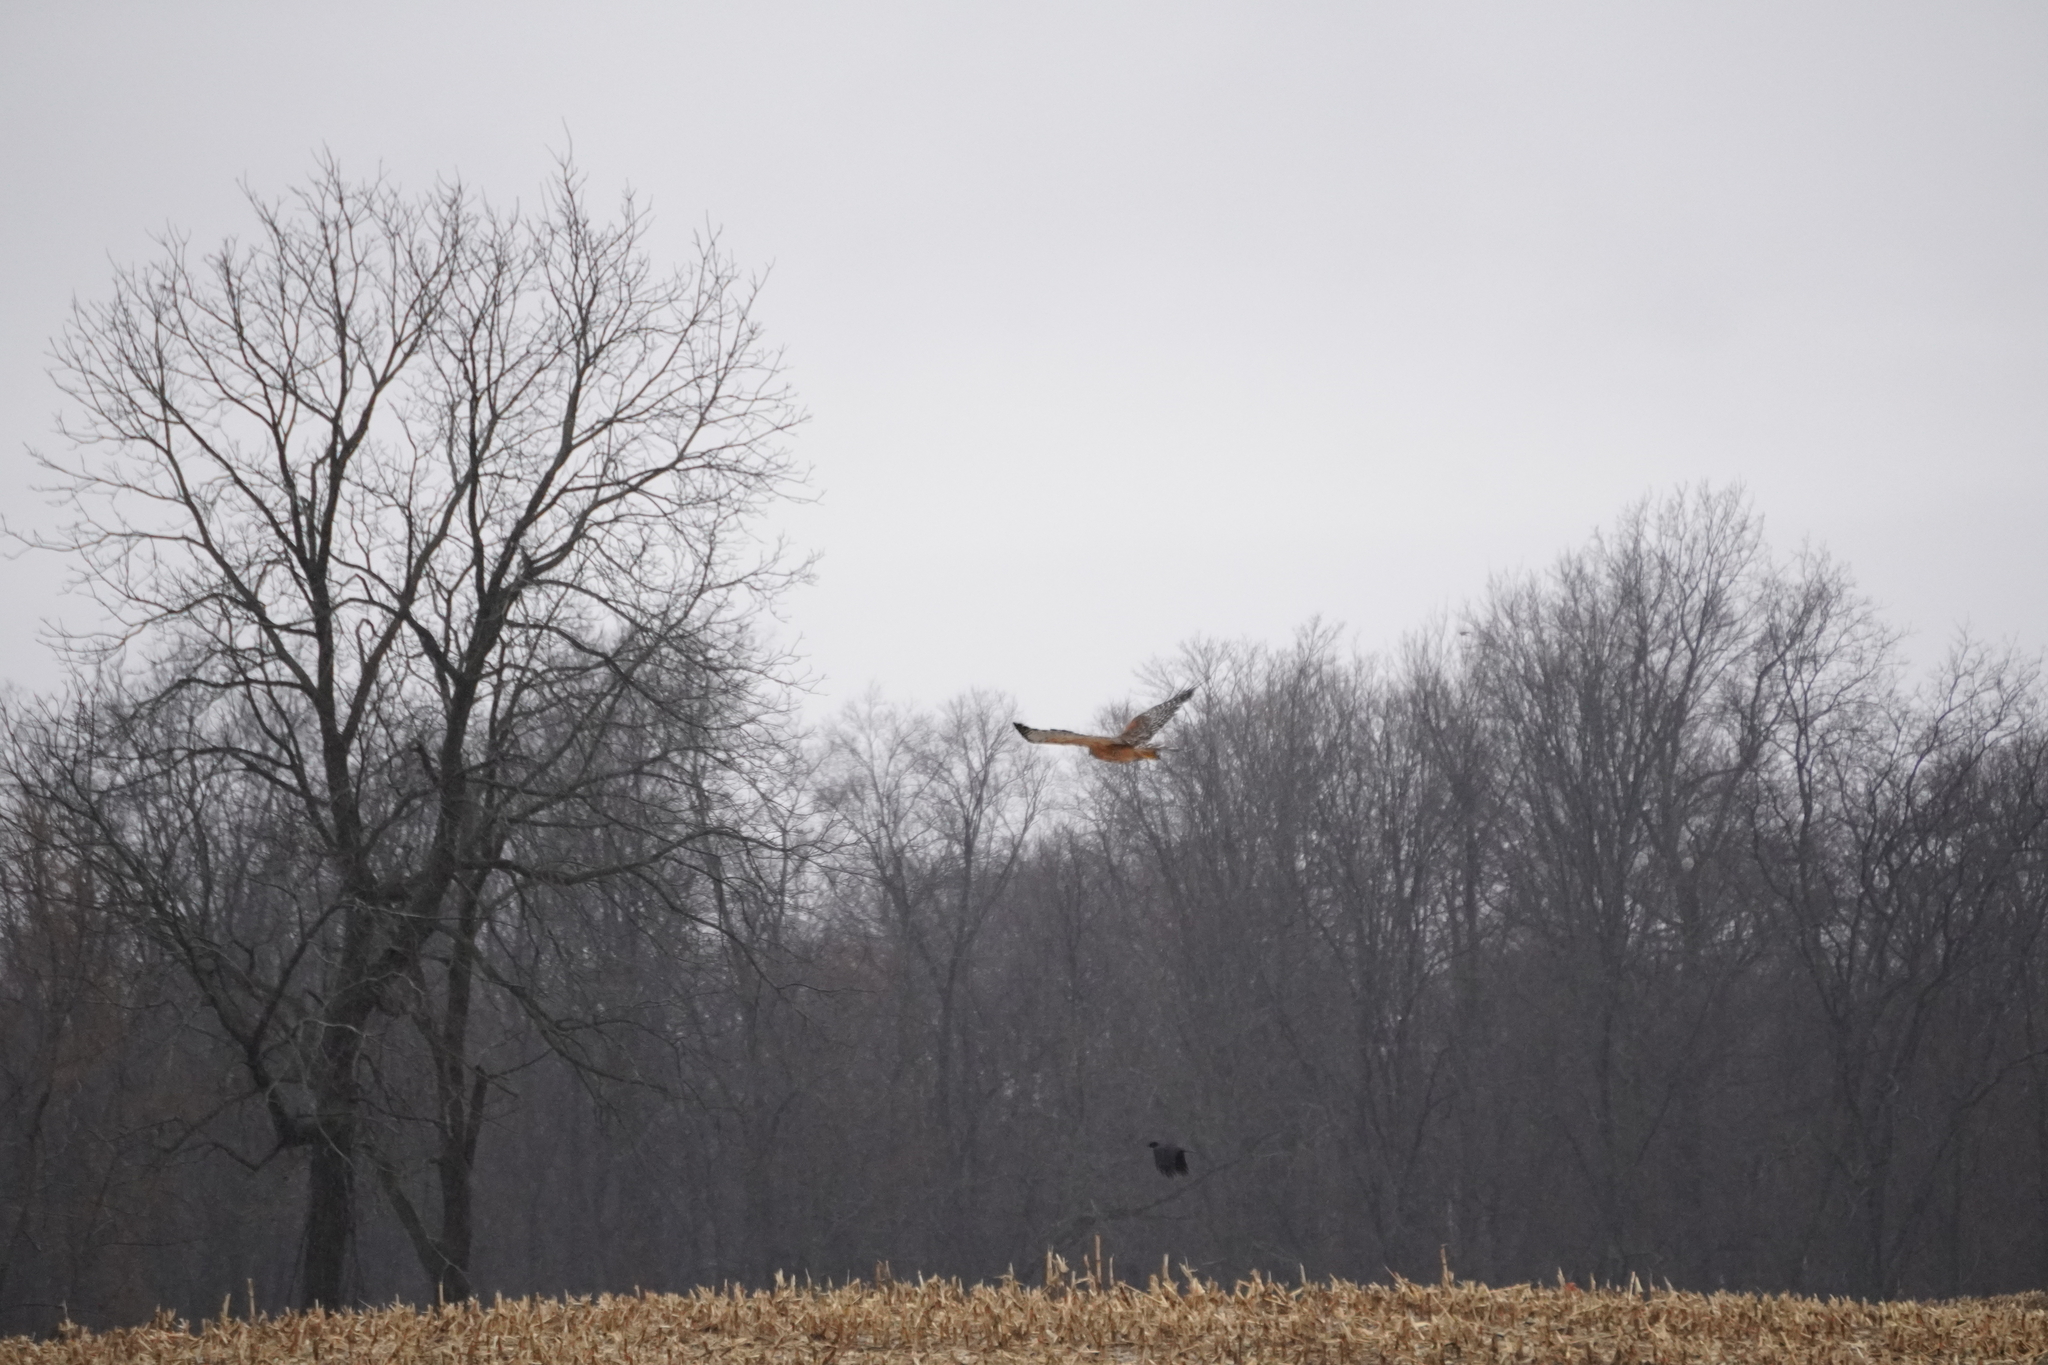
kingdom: Animalia
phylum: Chordata
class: Aves
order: Accipitriformes
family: Accipitridae
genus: Buteo
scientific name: Buteo lineatus
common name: Red-shouldered hawk
